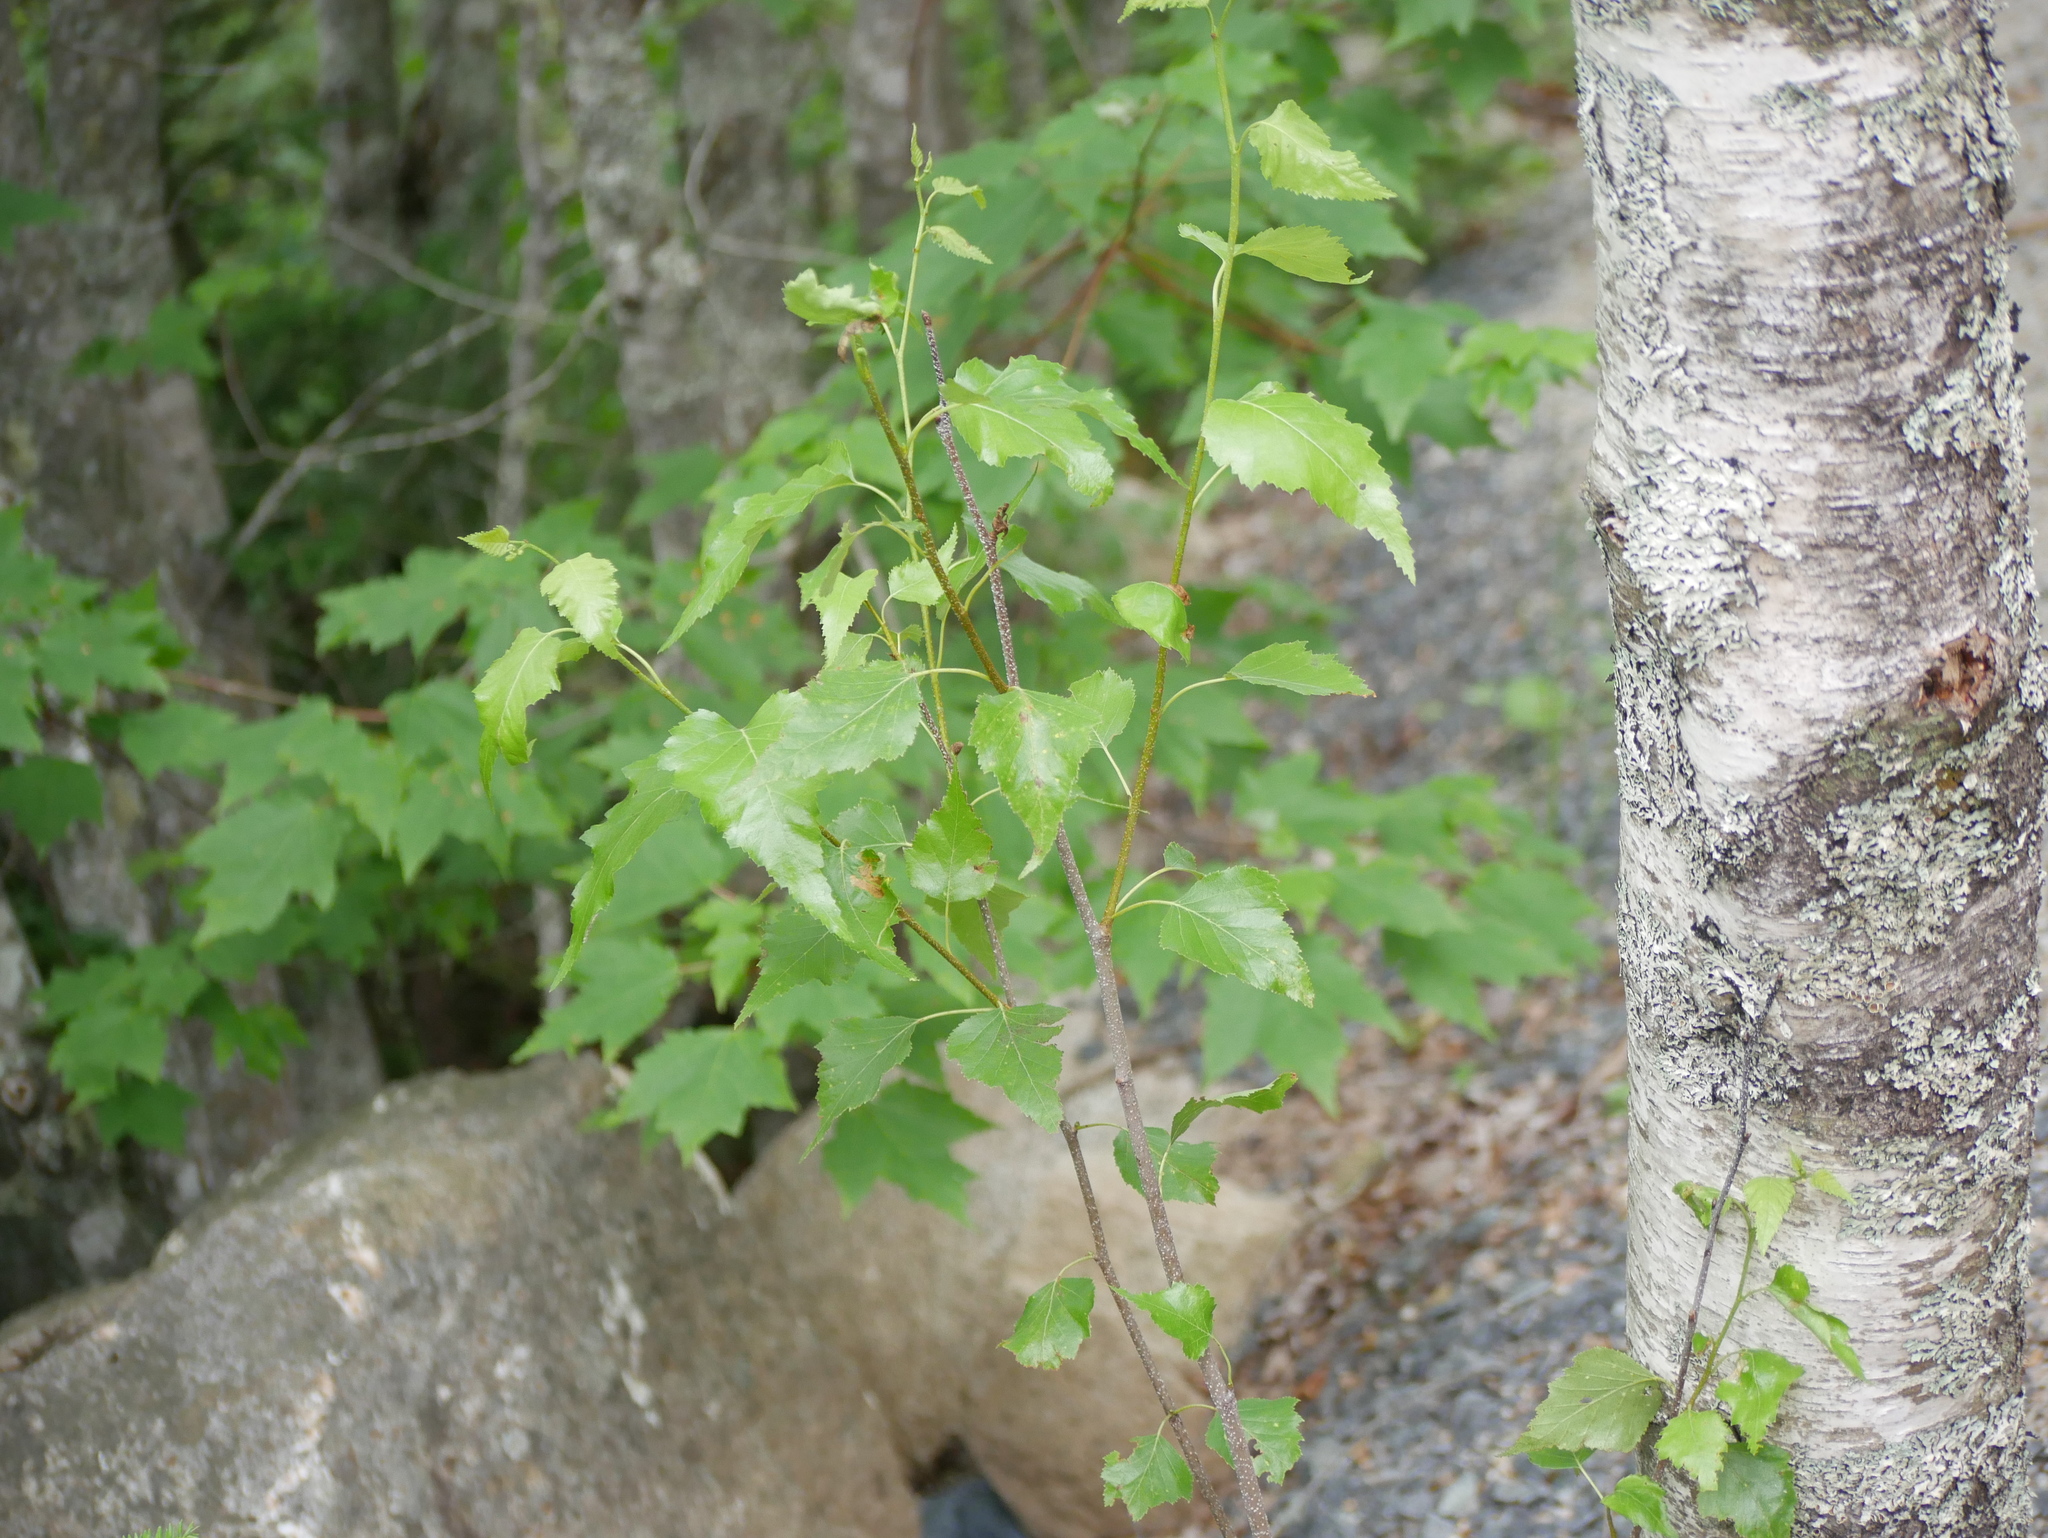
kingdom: Plantae
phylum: Tracheophyta
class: Magnoliopsida
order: Fagales
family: Betulaceae
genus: Betula
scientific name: Betula populifolia
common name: Fire birch
